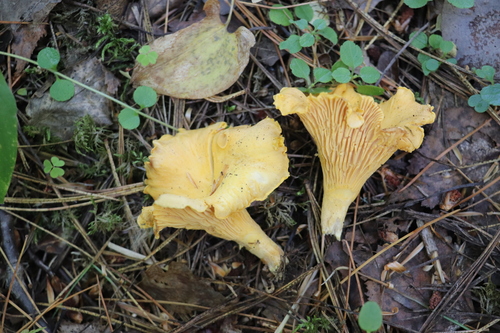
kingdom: Fungi
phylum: Basidiomycota
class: Agaricomycetes
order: Cantharellales
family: Hydnaceae
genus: Cantharellus
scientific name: Cantharellus cibarius
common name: Chanterelle
